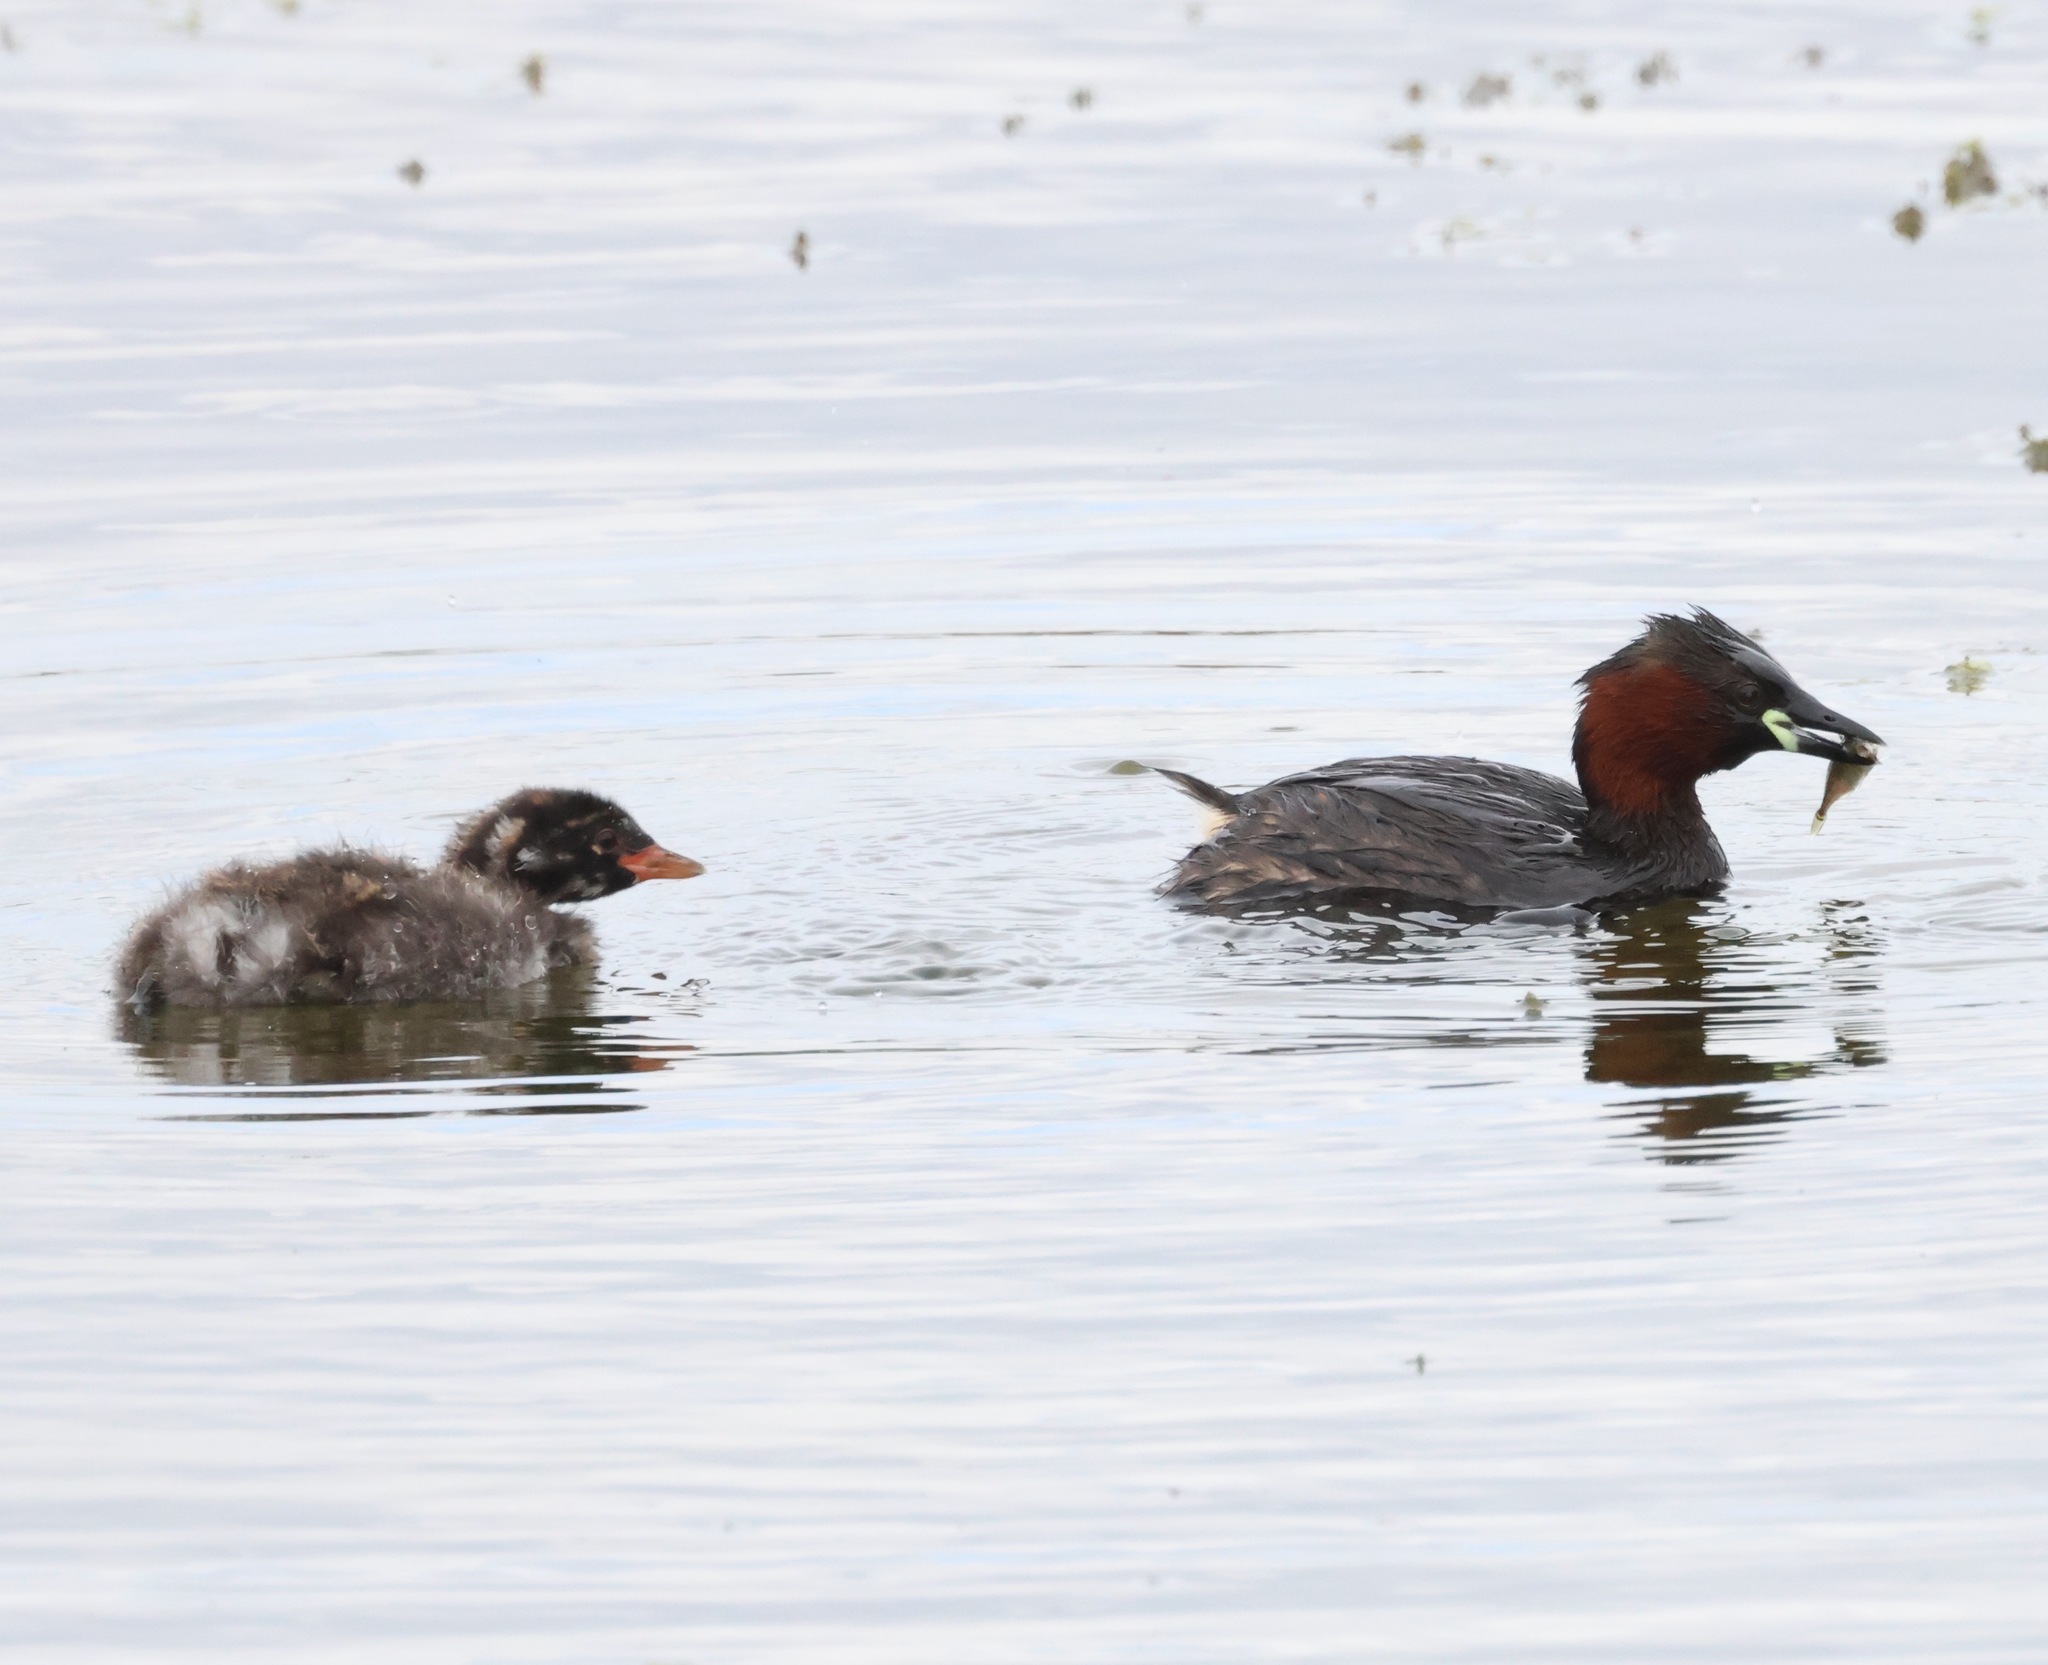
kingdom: Animalia
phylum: Chordata
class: Aves
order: Podicipediformes
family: Podicipedidae
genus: Tachybaptus
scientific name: Tachybaptus ruficollis
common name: Little grebe
